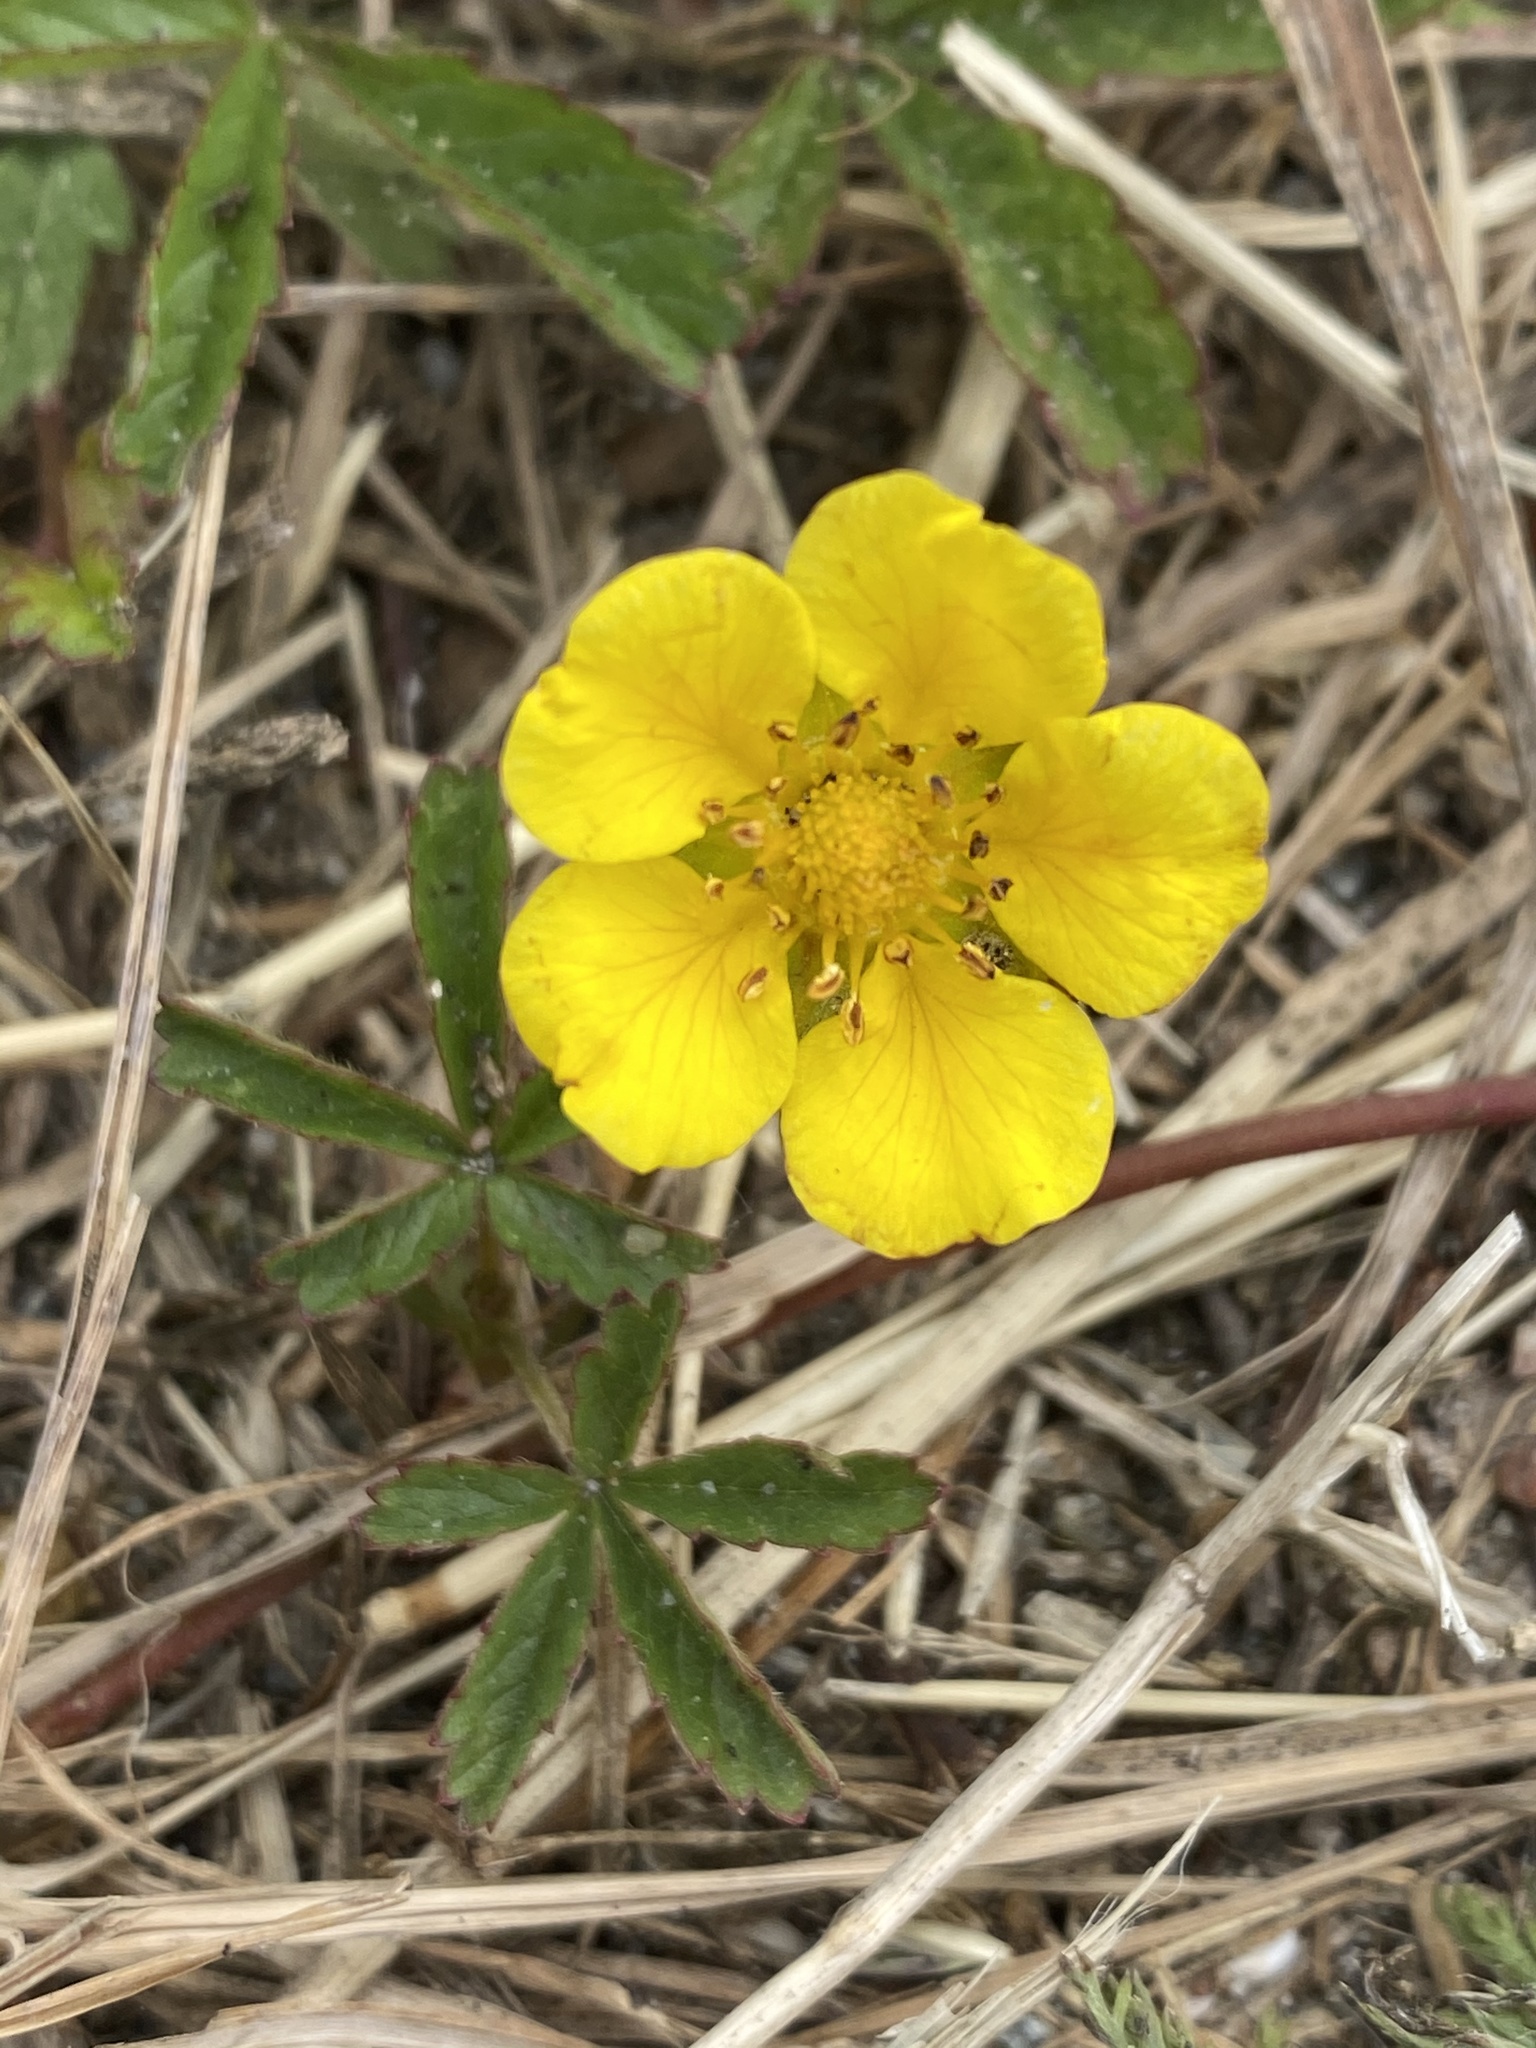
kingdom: Plantae
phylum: Tracheophyta
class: Magnoliopsida
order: Rosales
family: Rosaceae
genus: Potentilla
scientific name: Potentilla reptans
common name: Creeping cinquefoil
